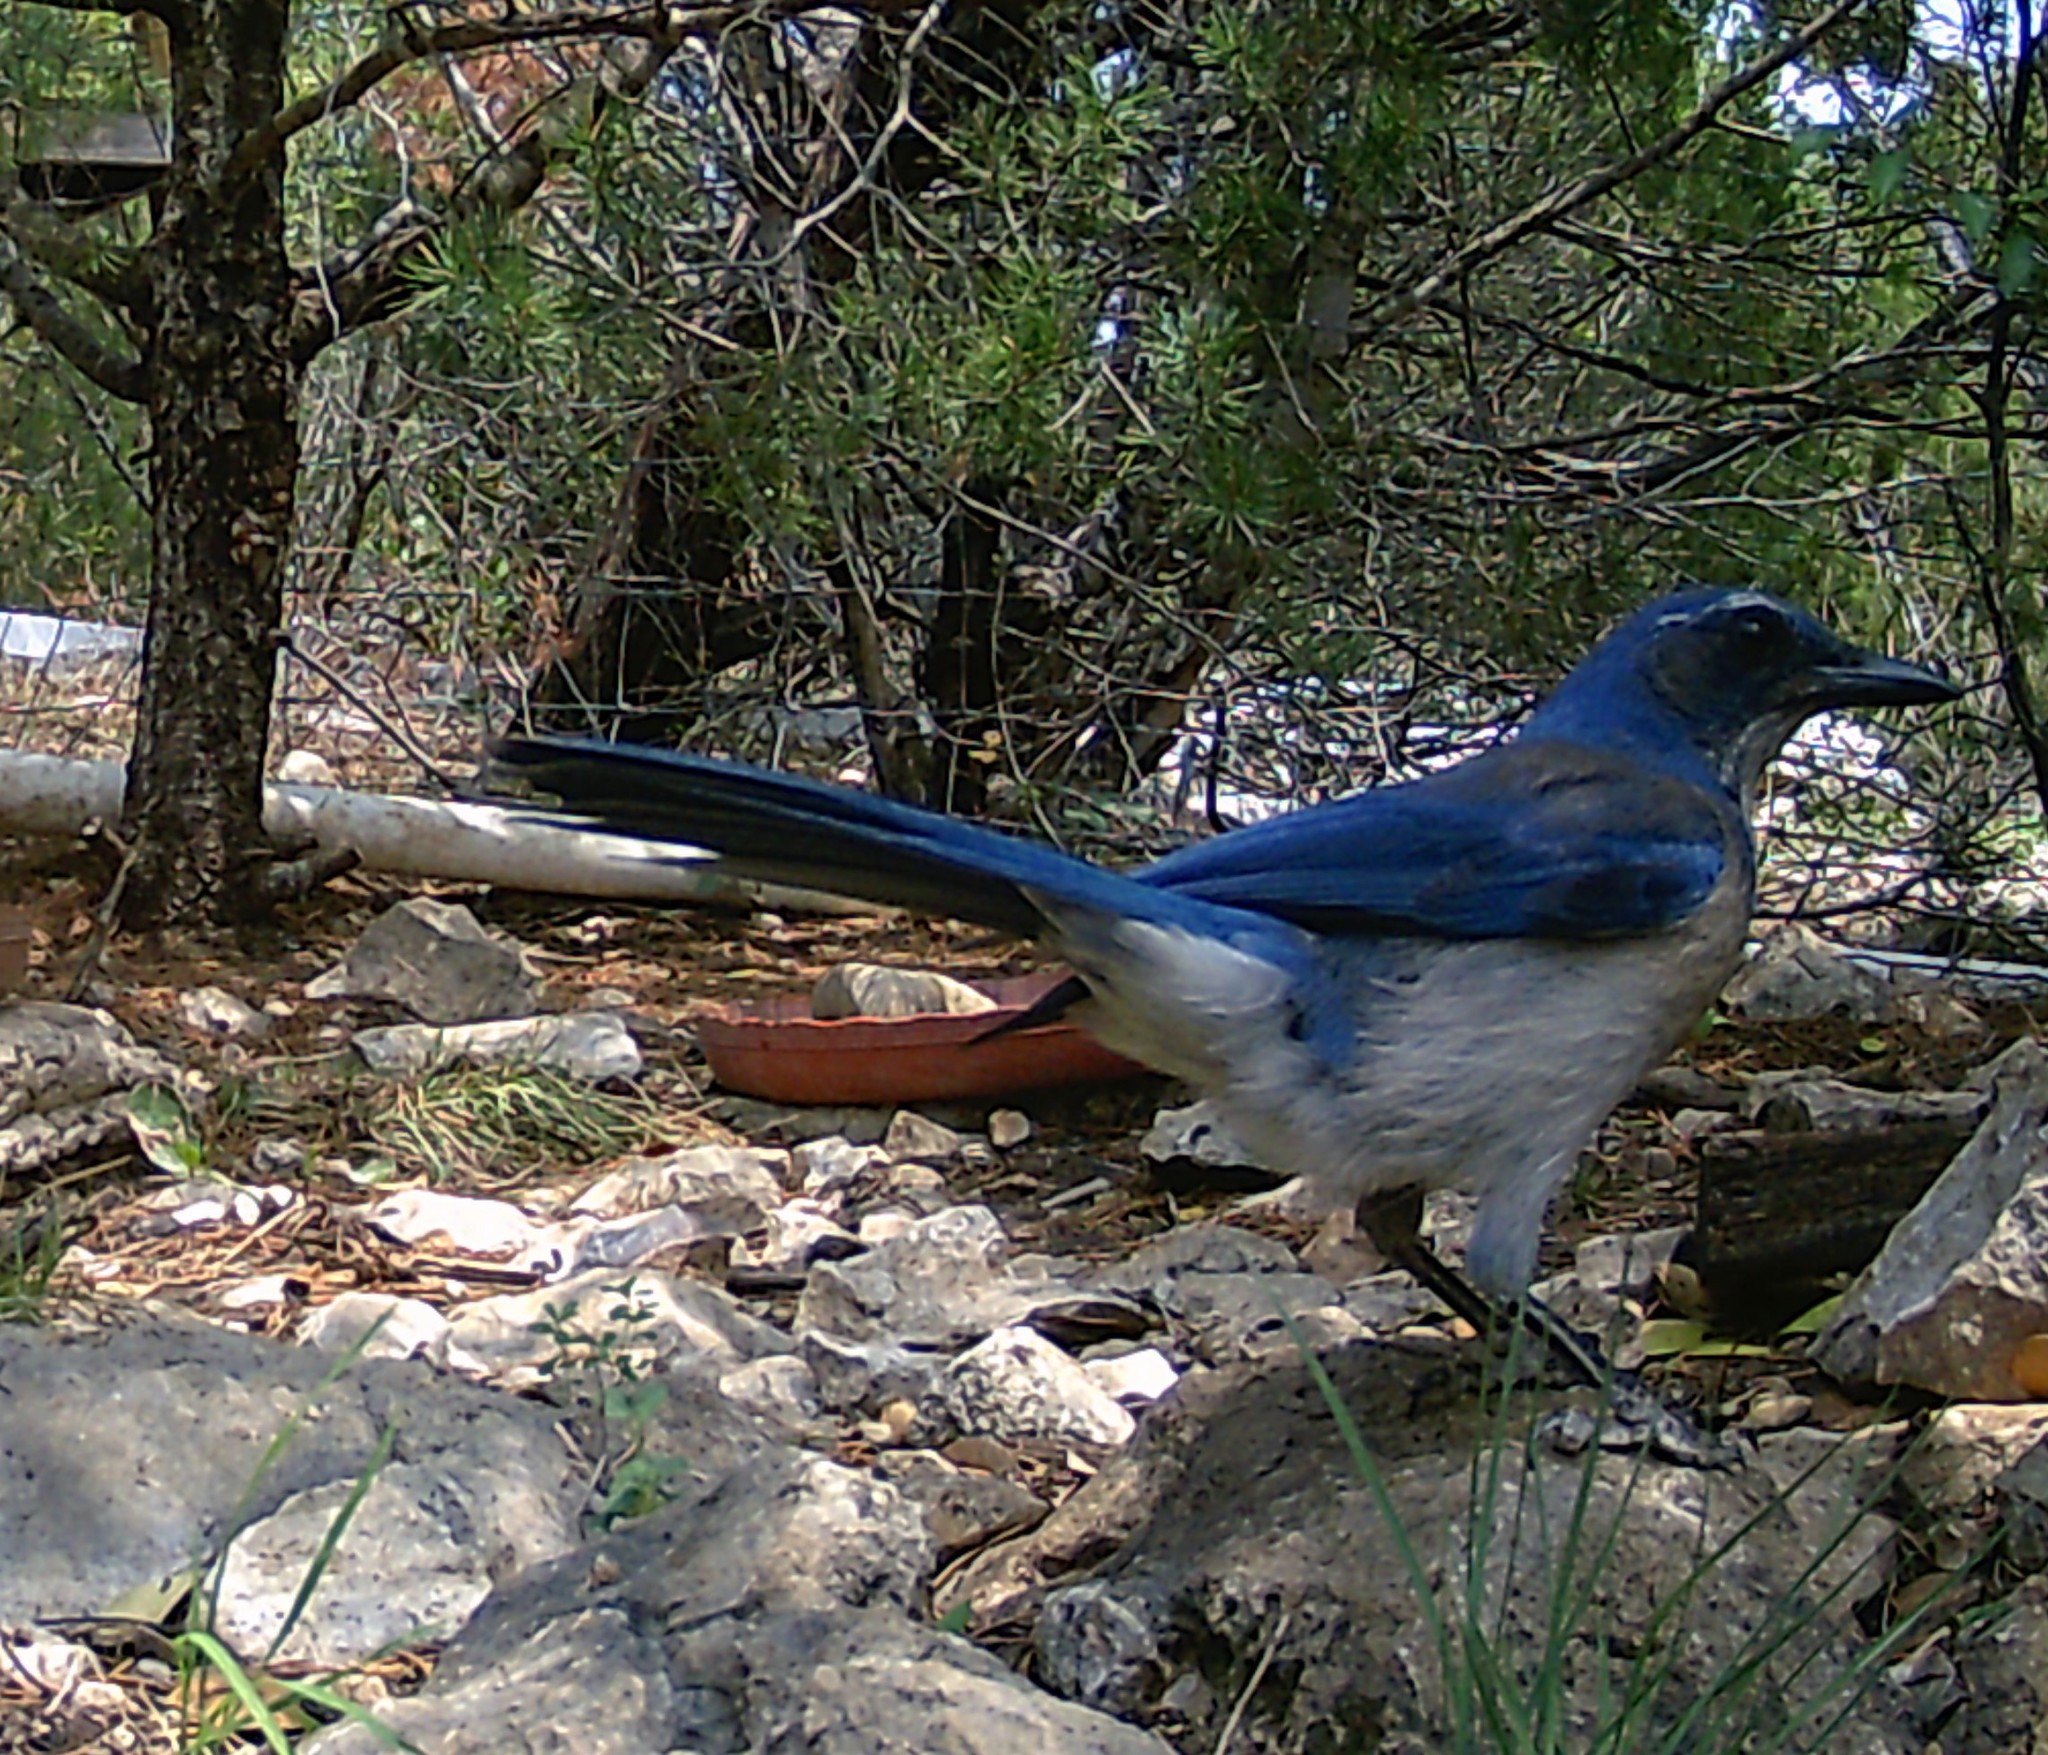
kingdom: Animalia
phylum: Chordata
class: Aves
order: Passeriformes
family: Corvidae
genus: Aphelocoma
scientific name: Aphelocoma woodhouseii
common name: Woodhouse's scrub-jay
